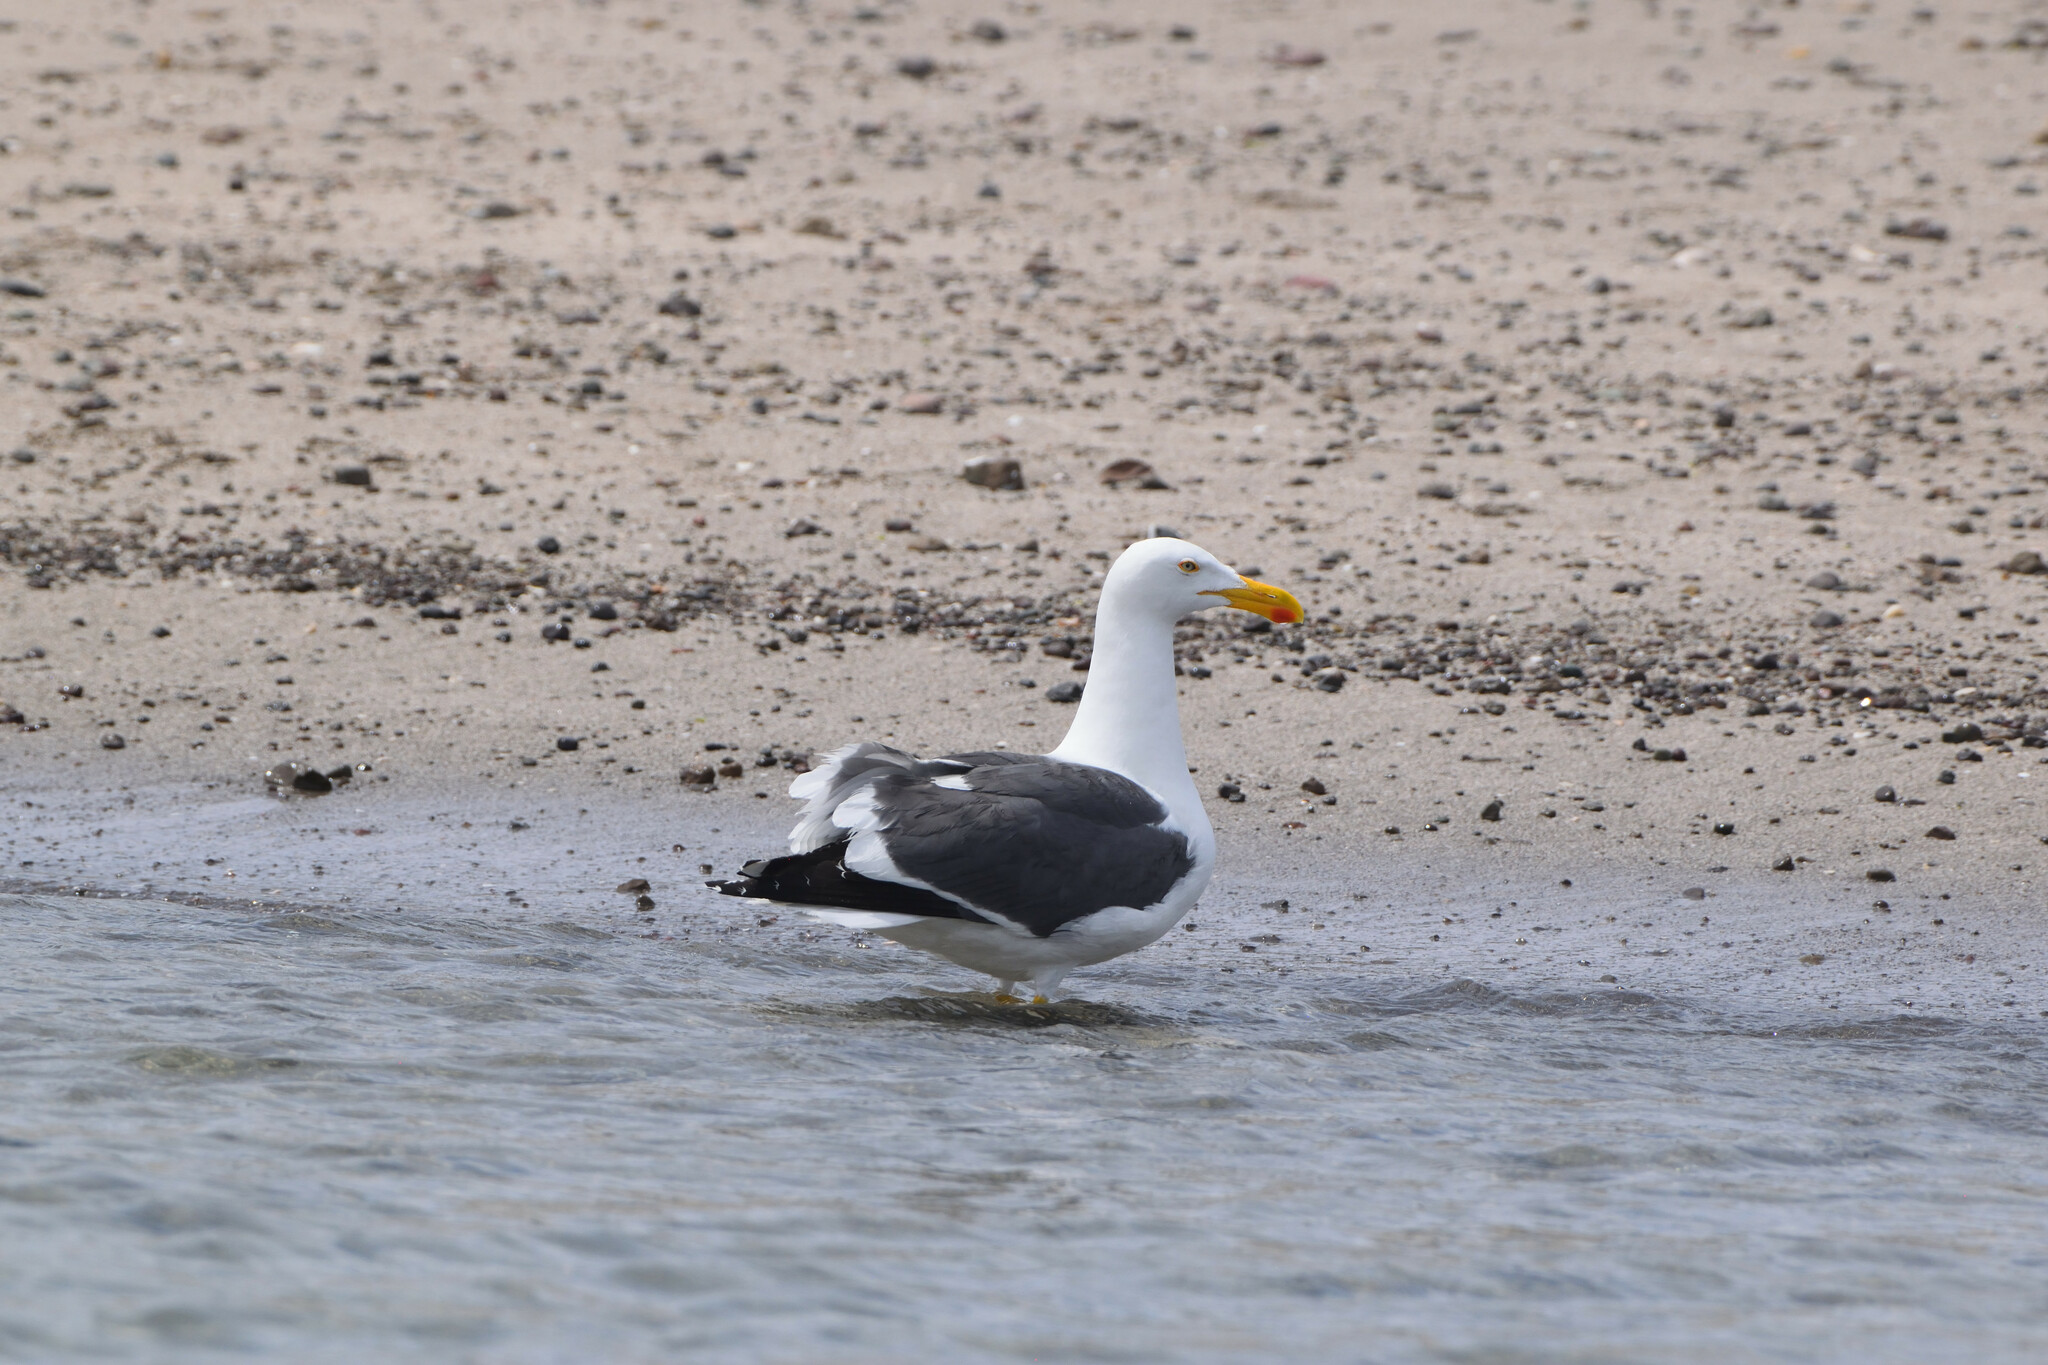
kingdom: Animalia
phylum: Chordata
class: Aves
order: Charadriiformes
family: Laridae
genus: Larus
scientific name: Larus livens
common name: Yellow-footed gull
